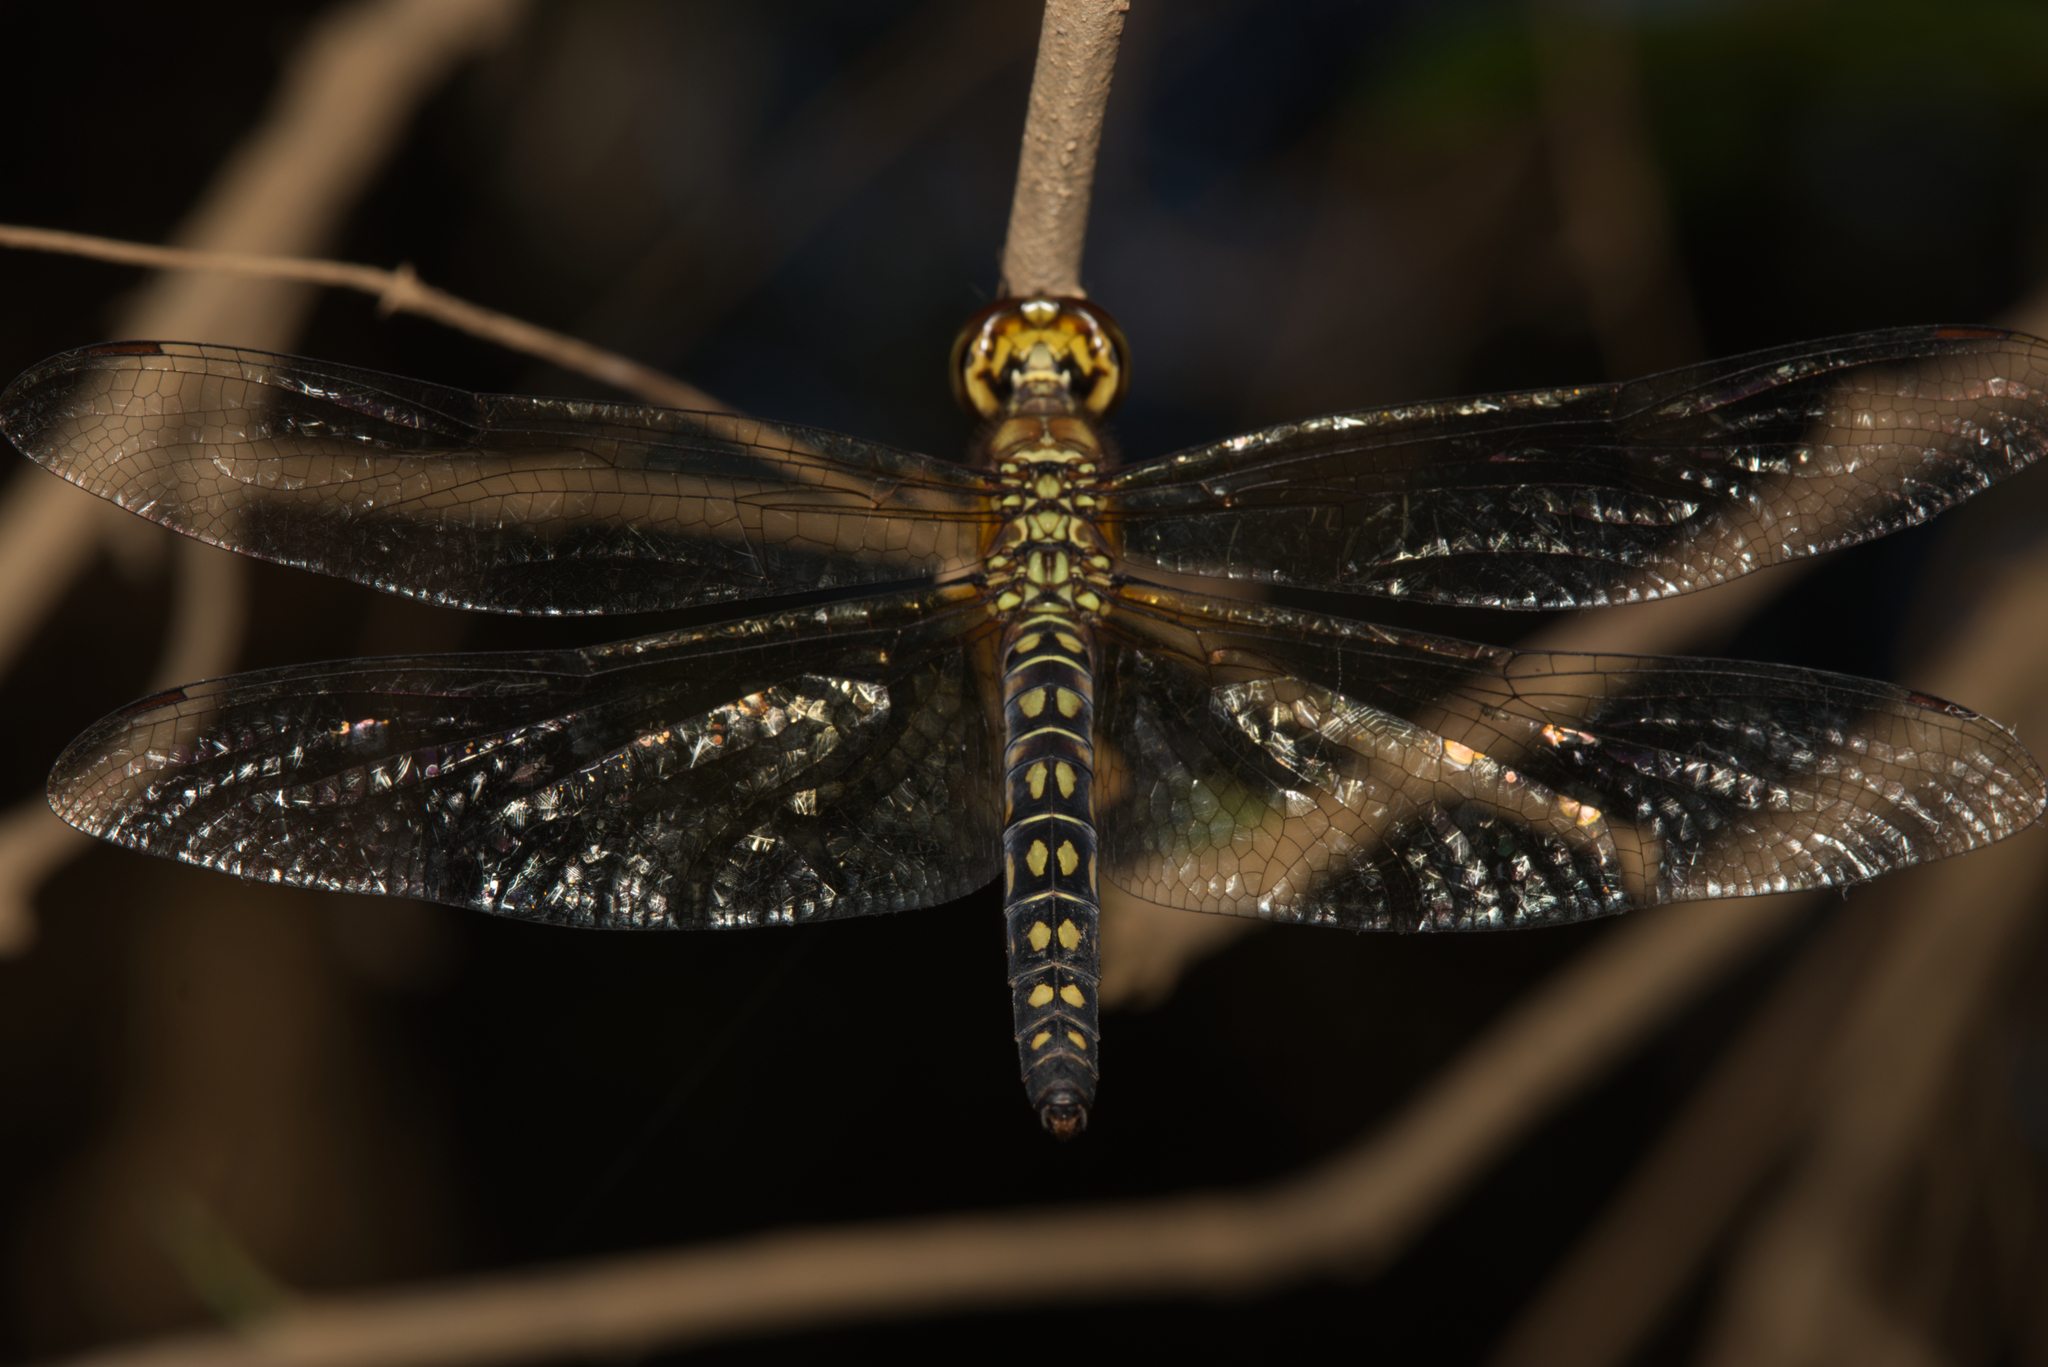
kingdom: Animalia
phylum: Arthropoda
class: Insecta
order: Odonata
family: Libellulidae
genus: Hydrobasileus
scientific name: Hydrobasileus brevistylus
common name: Water prince
